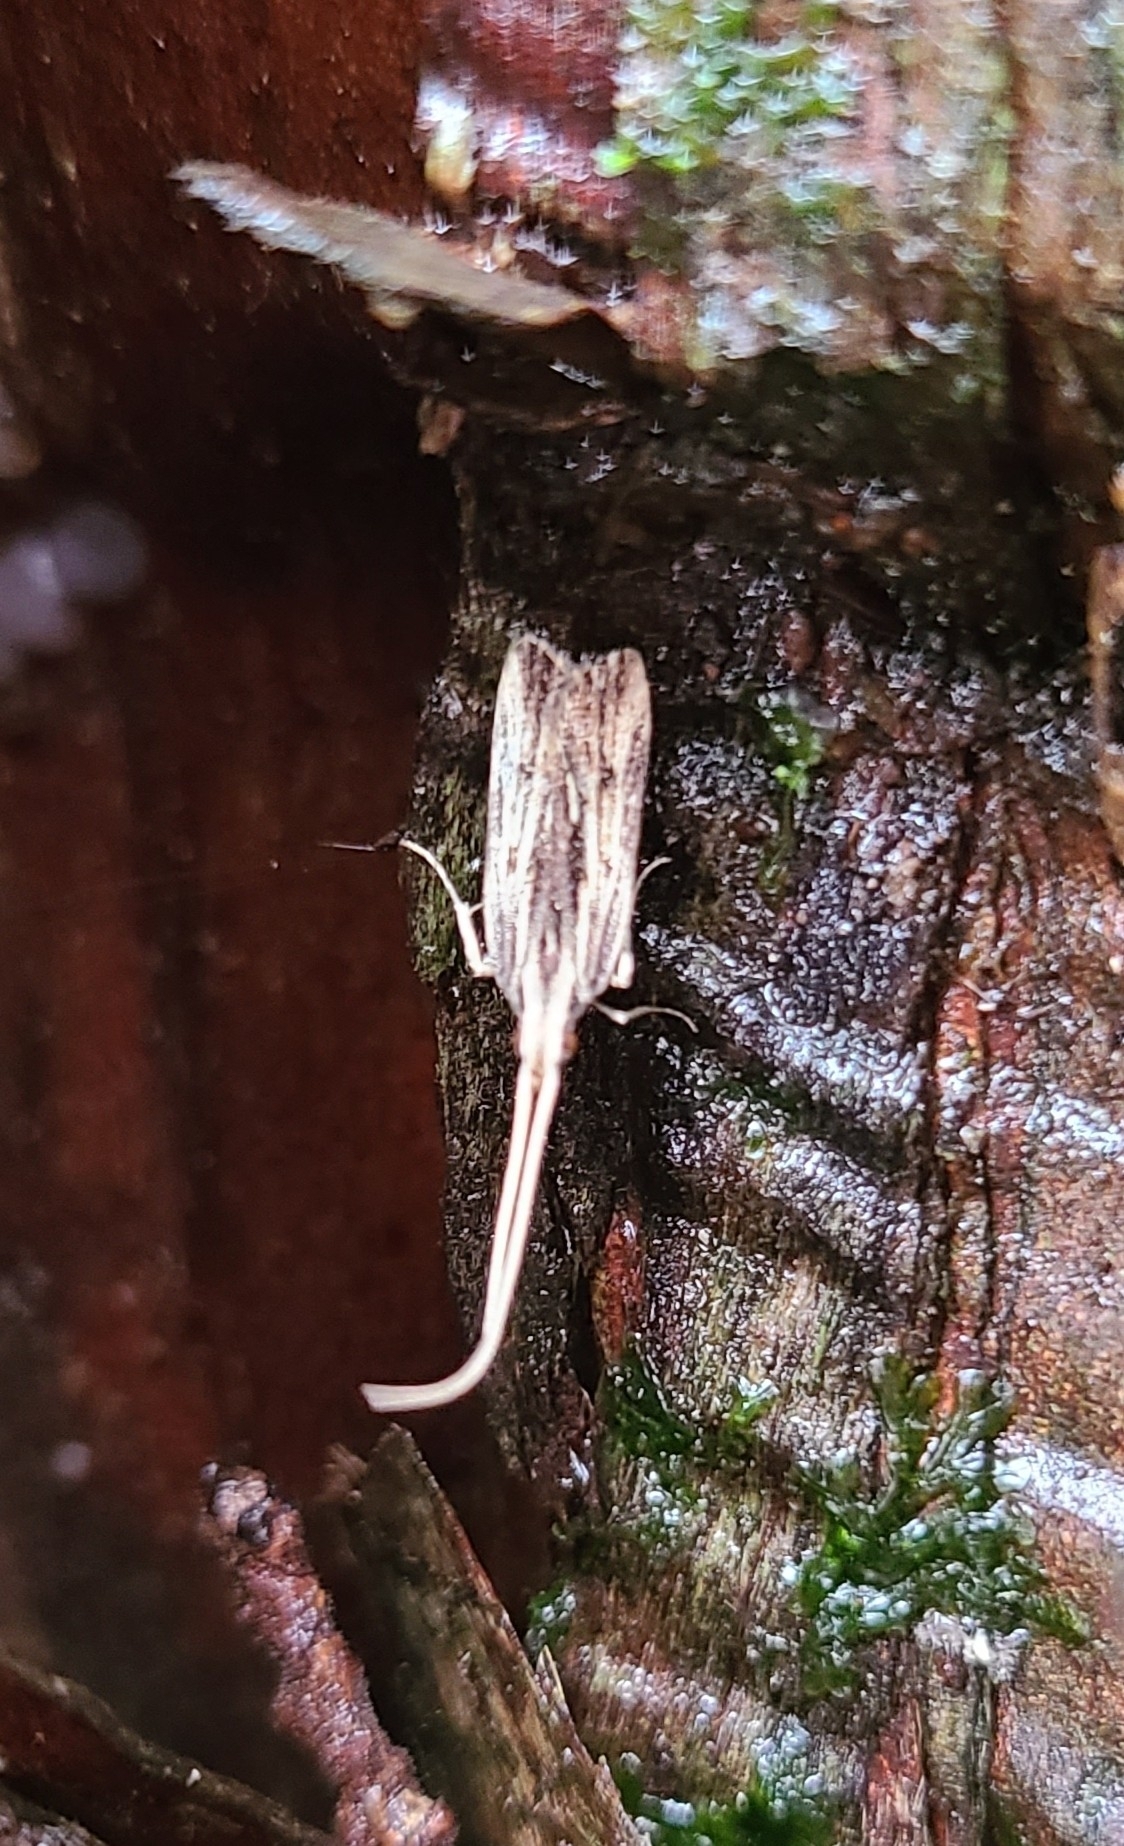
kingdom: Animalia
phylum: Arthropoda
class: Insecta
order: Lepidoptera
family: Lecithoceridae
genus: Sarisophora
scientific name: Sarisophora leucoscia
